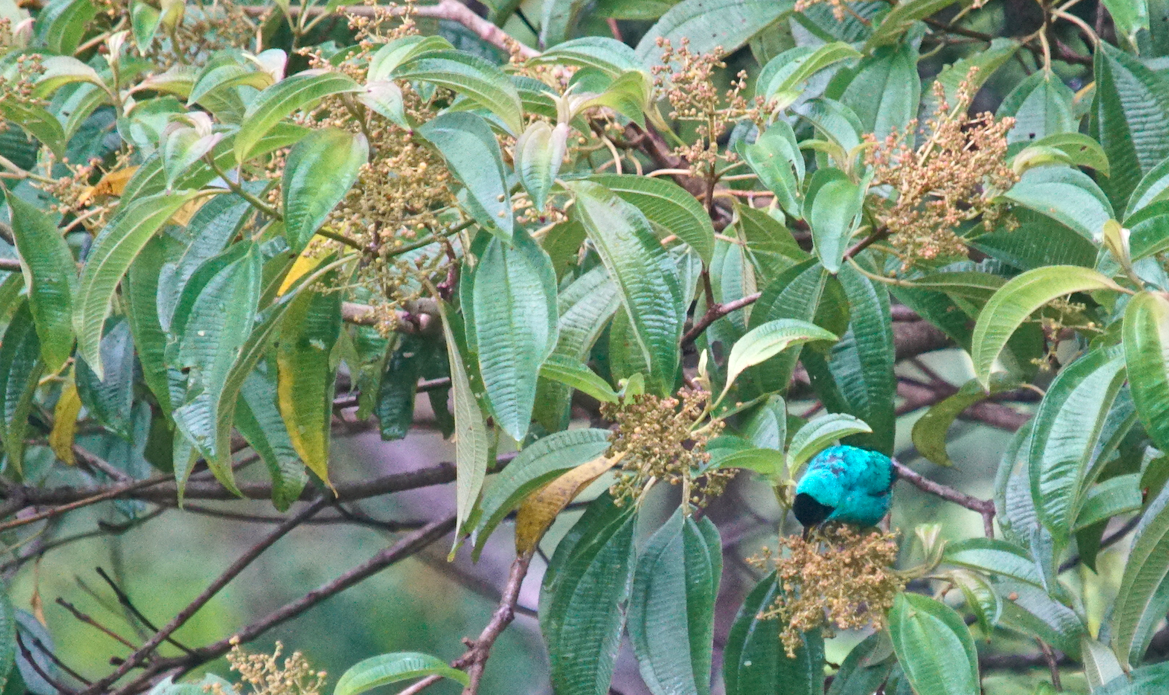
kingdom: Animalia
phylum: Chordata
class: Aves
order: Passeriformes
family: Thraupidae
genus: Chlorophanes
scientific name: Chlorophanes spiza
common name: Green honeycreeper
